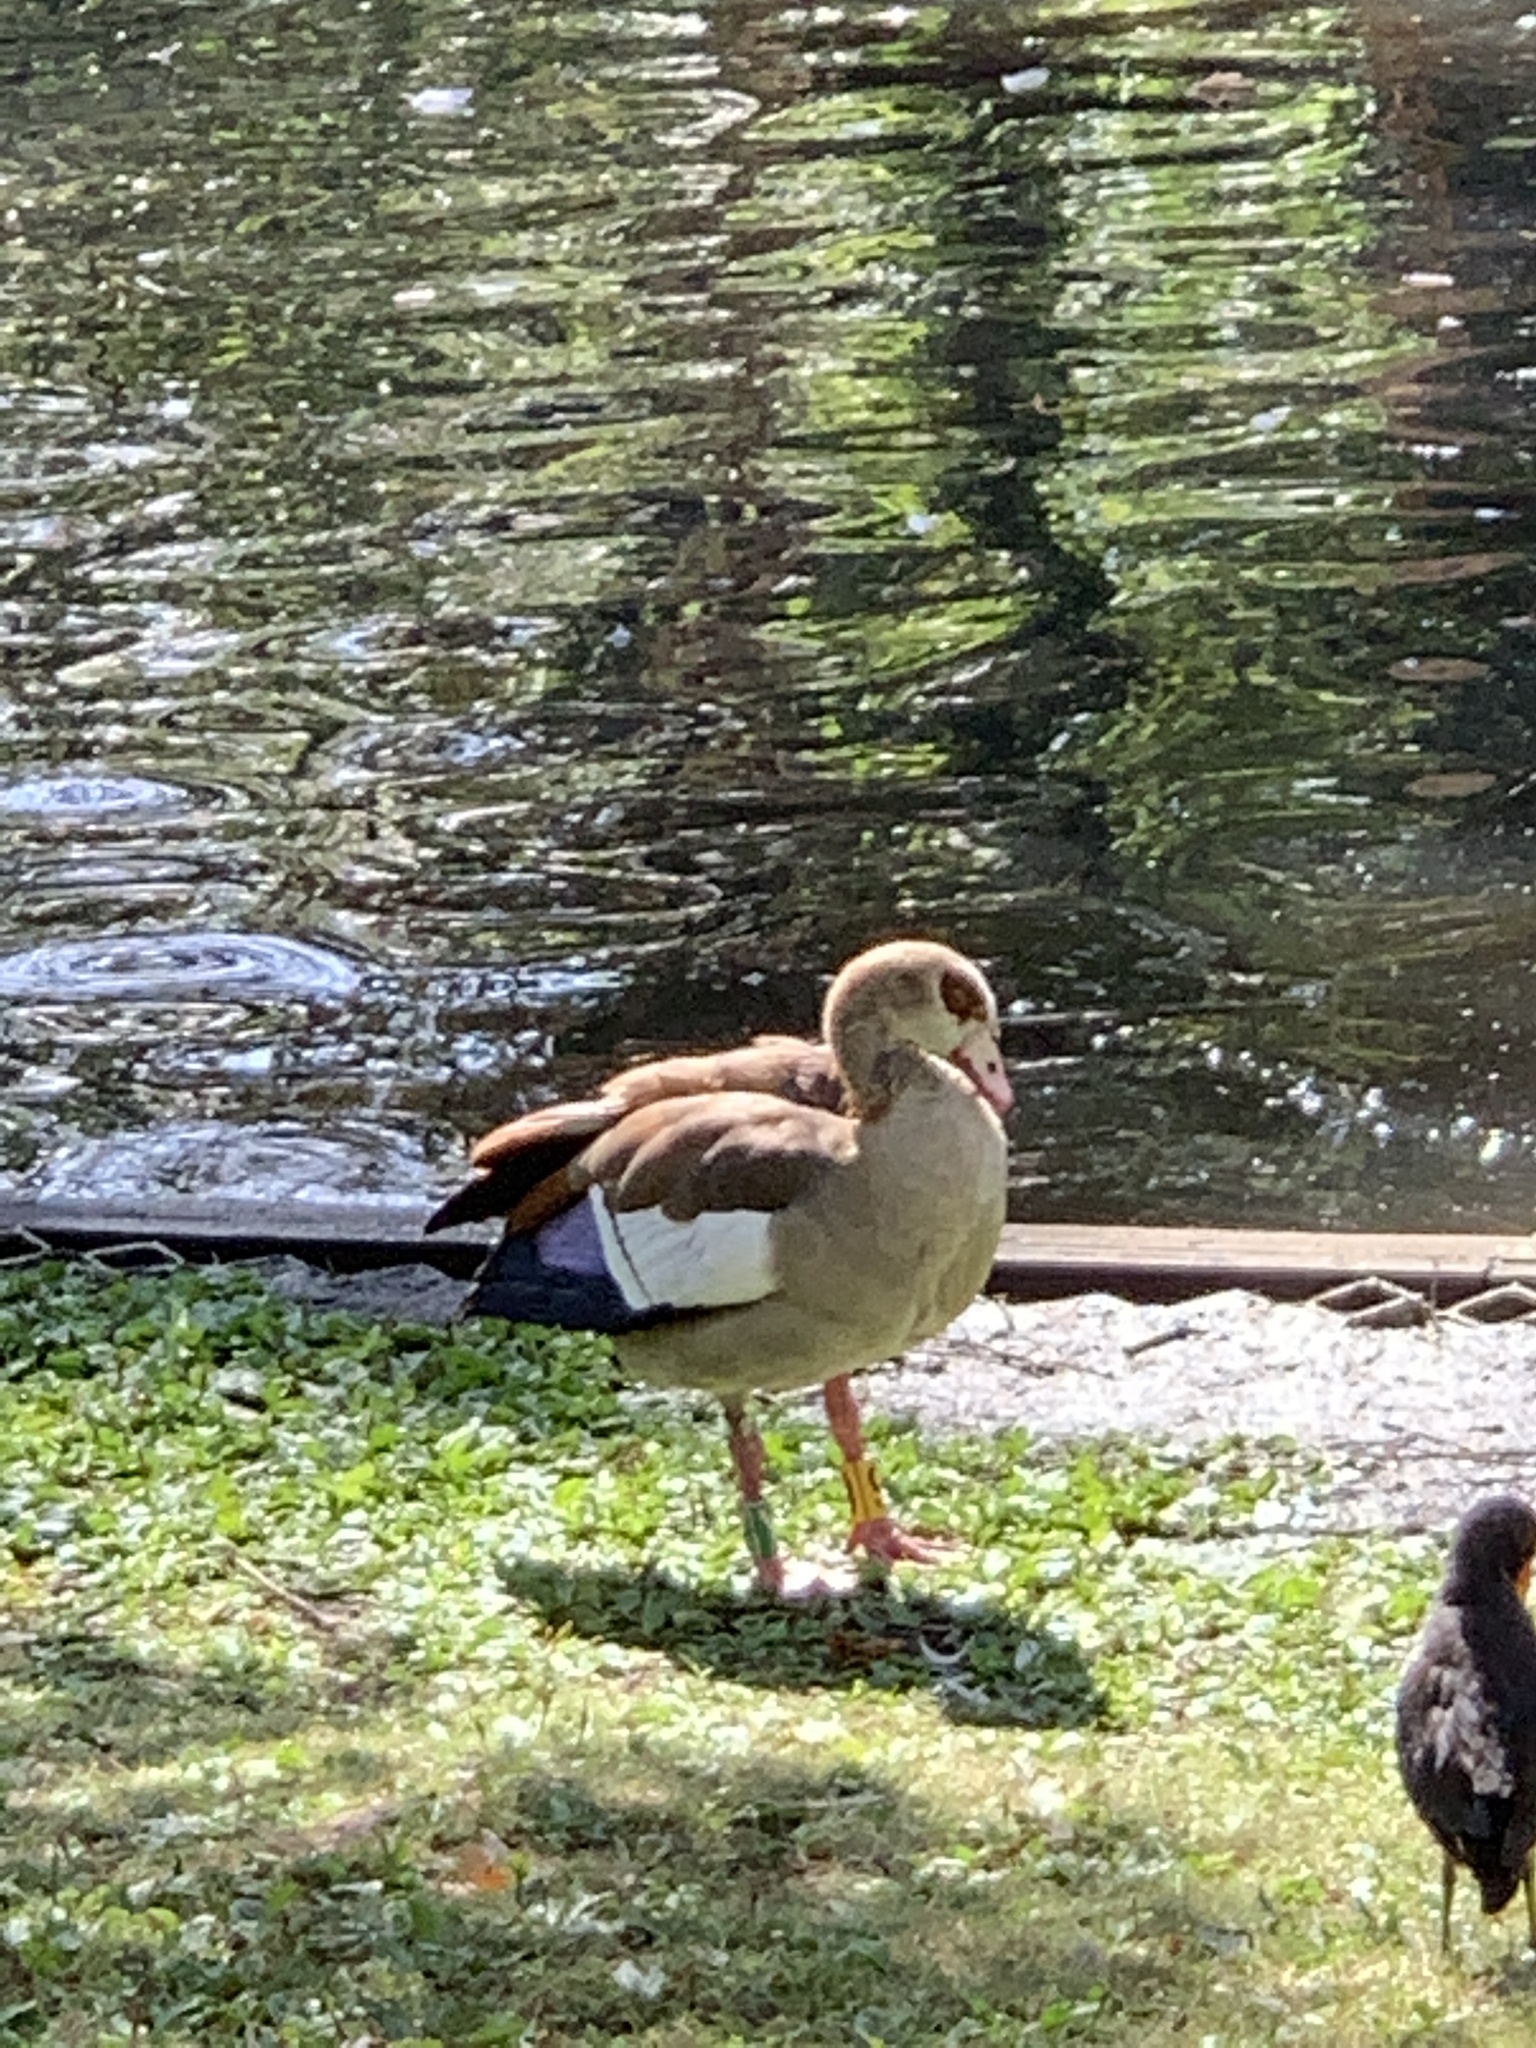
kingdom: Animalia
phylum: Chordata
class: Aves
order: Anseriformes
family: Anatidae
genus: Alopochen
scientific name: Alopochen aegyptiaca
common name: Egyptian goose
